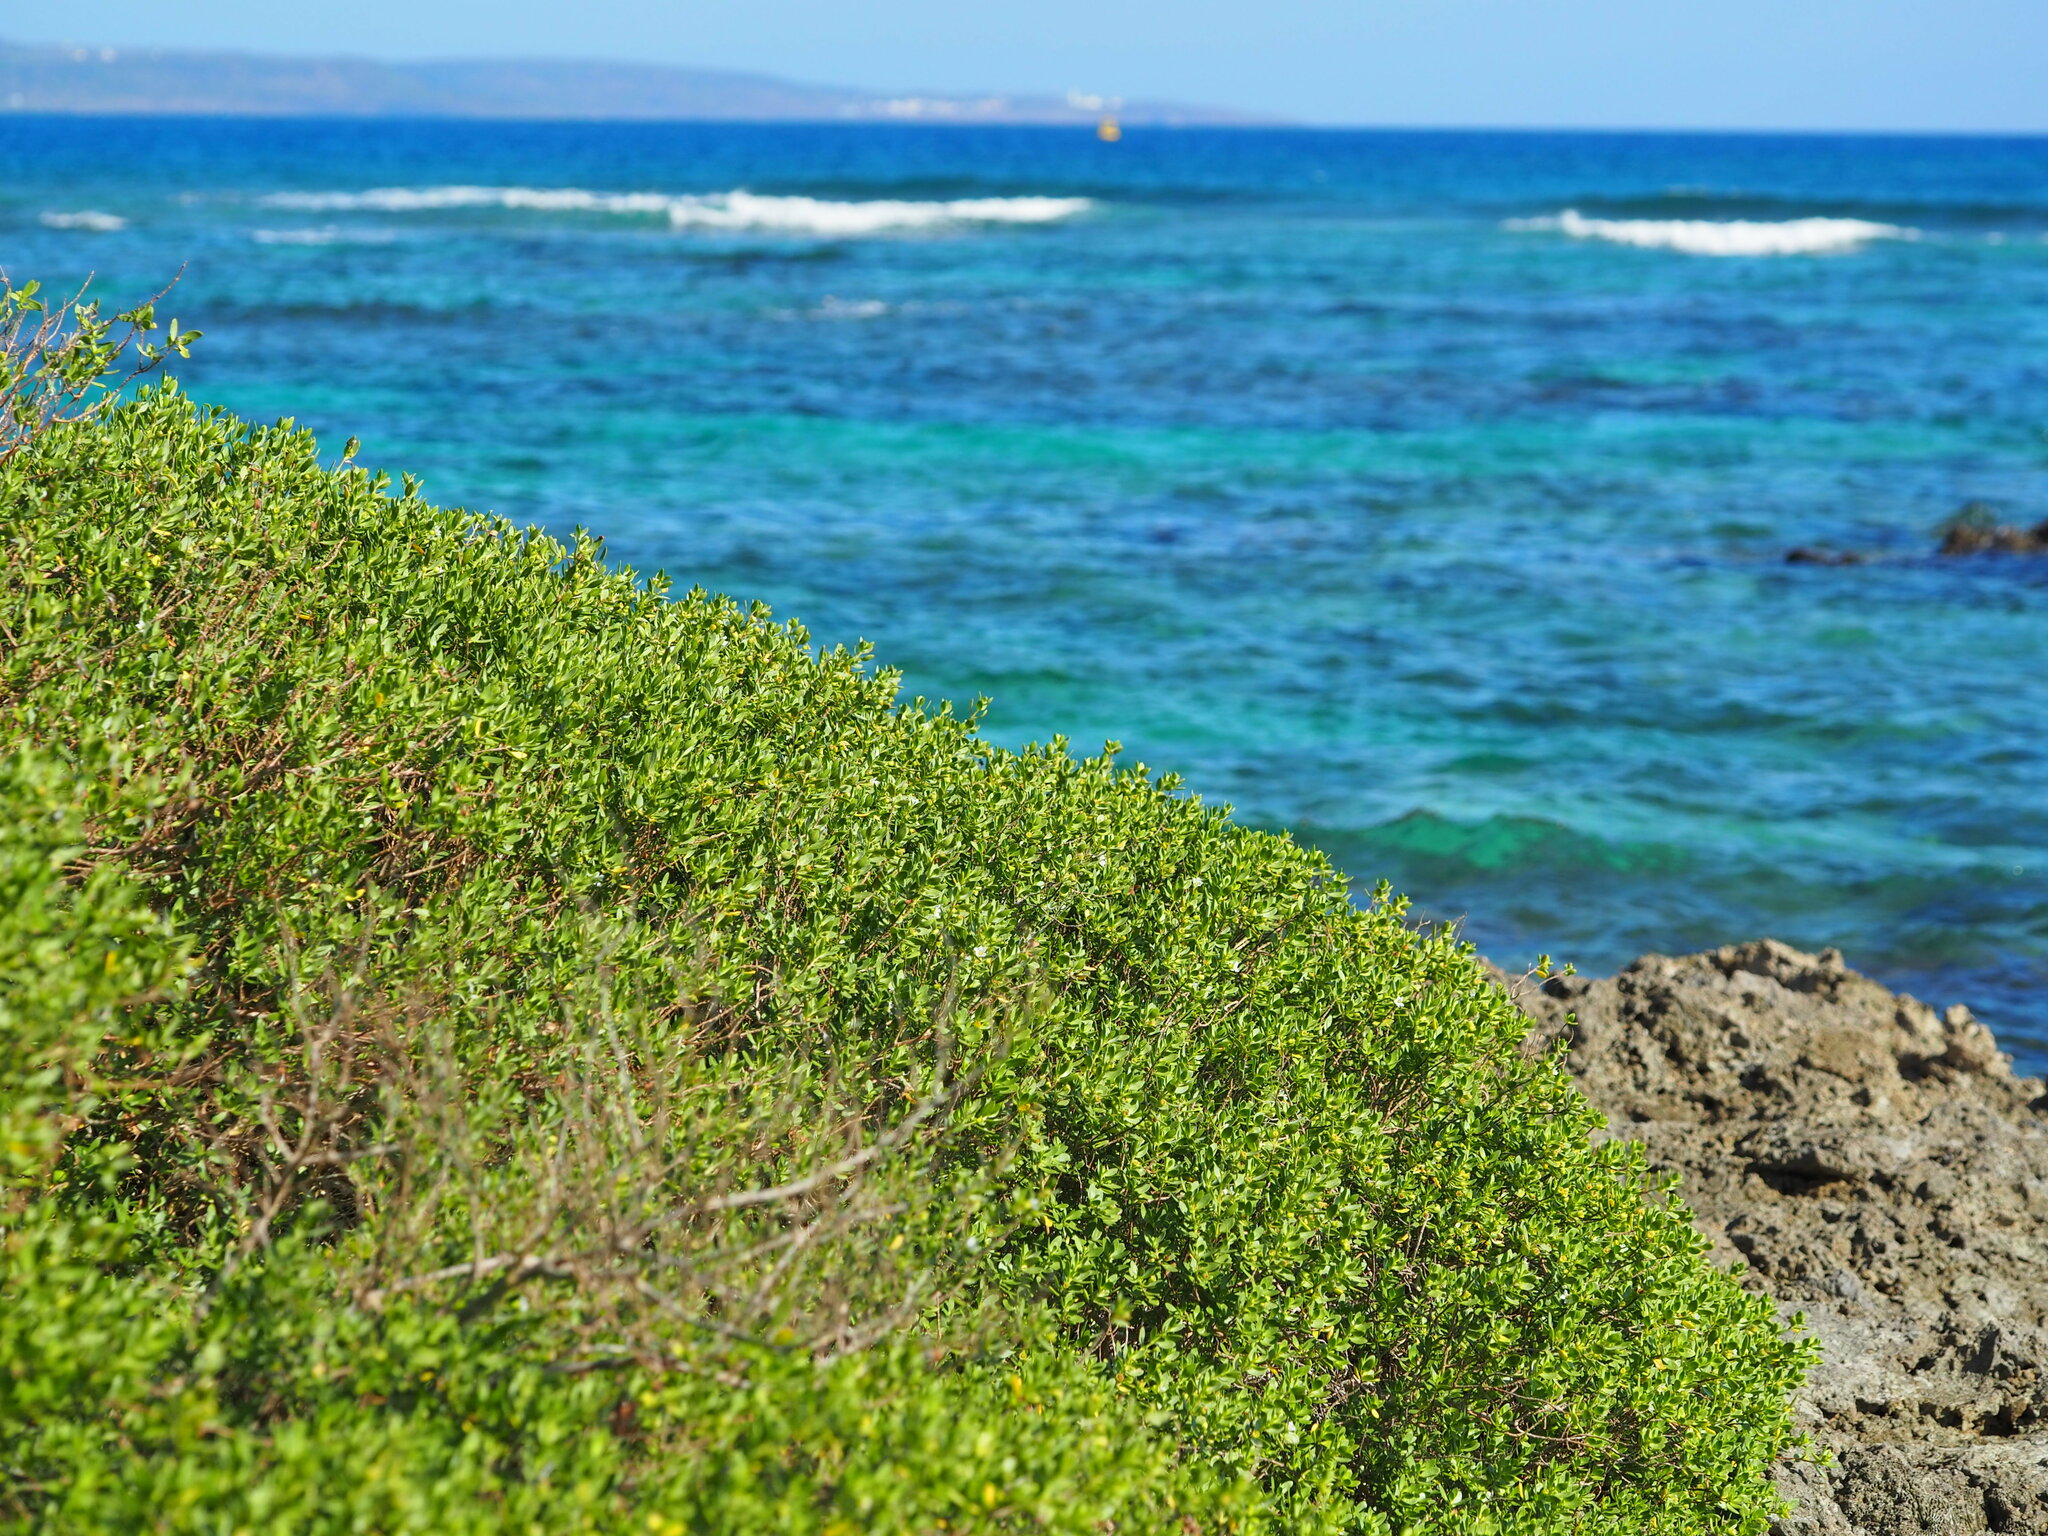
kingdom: Plantae
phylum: Tracheophyta
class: Magnoliopsida
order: Myrtales
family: Lythraceae
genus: Pemphis
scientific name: Pemphis acidula
